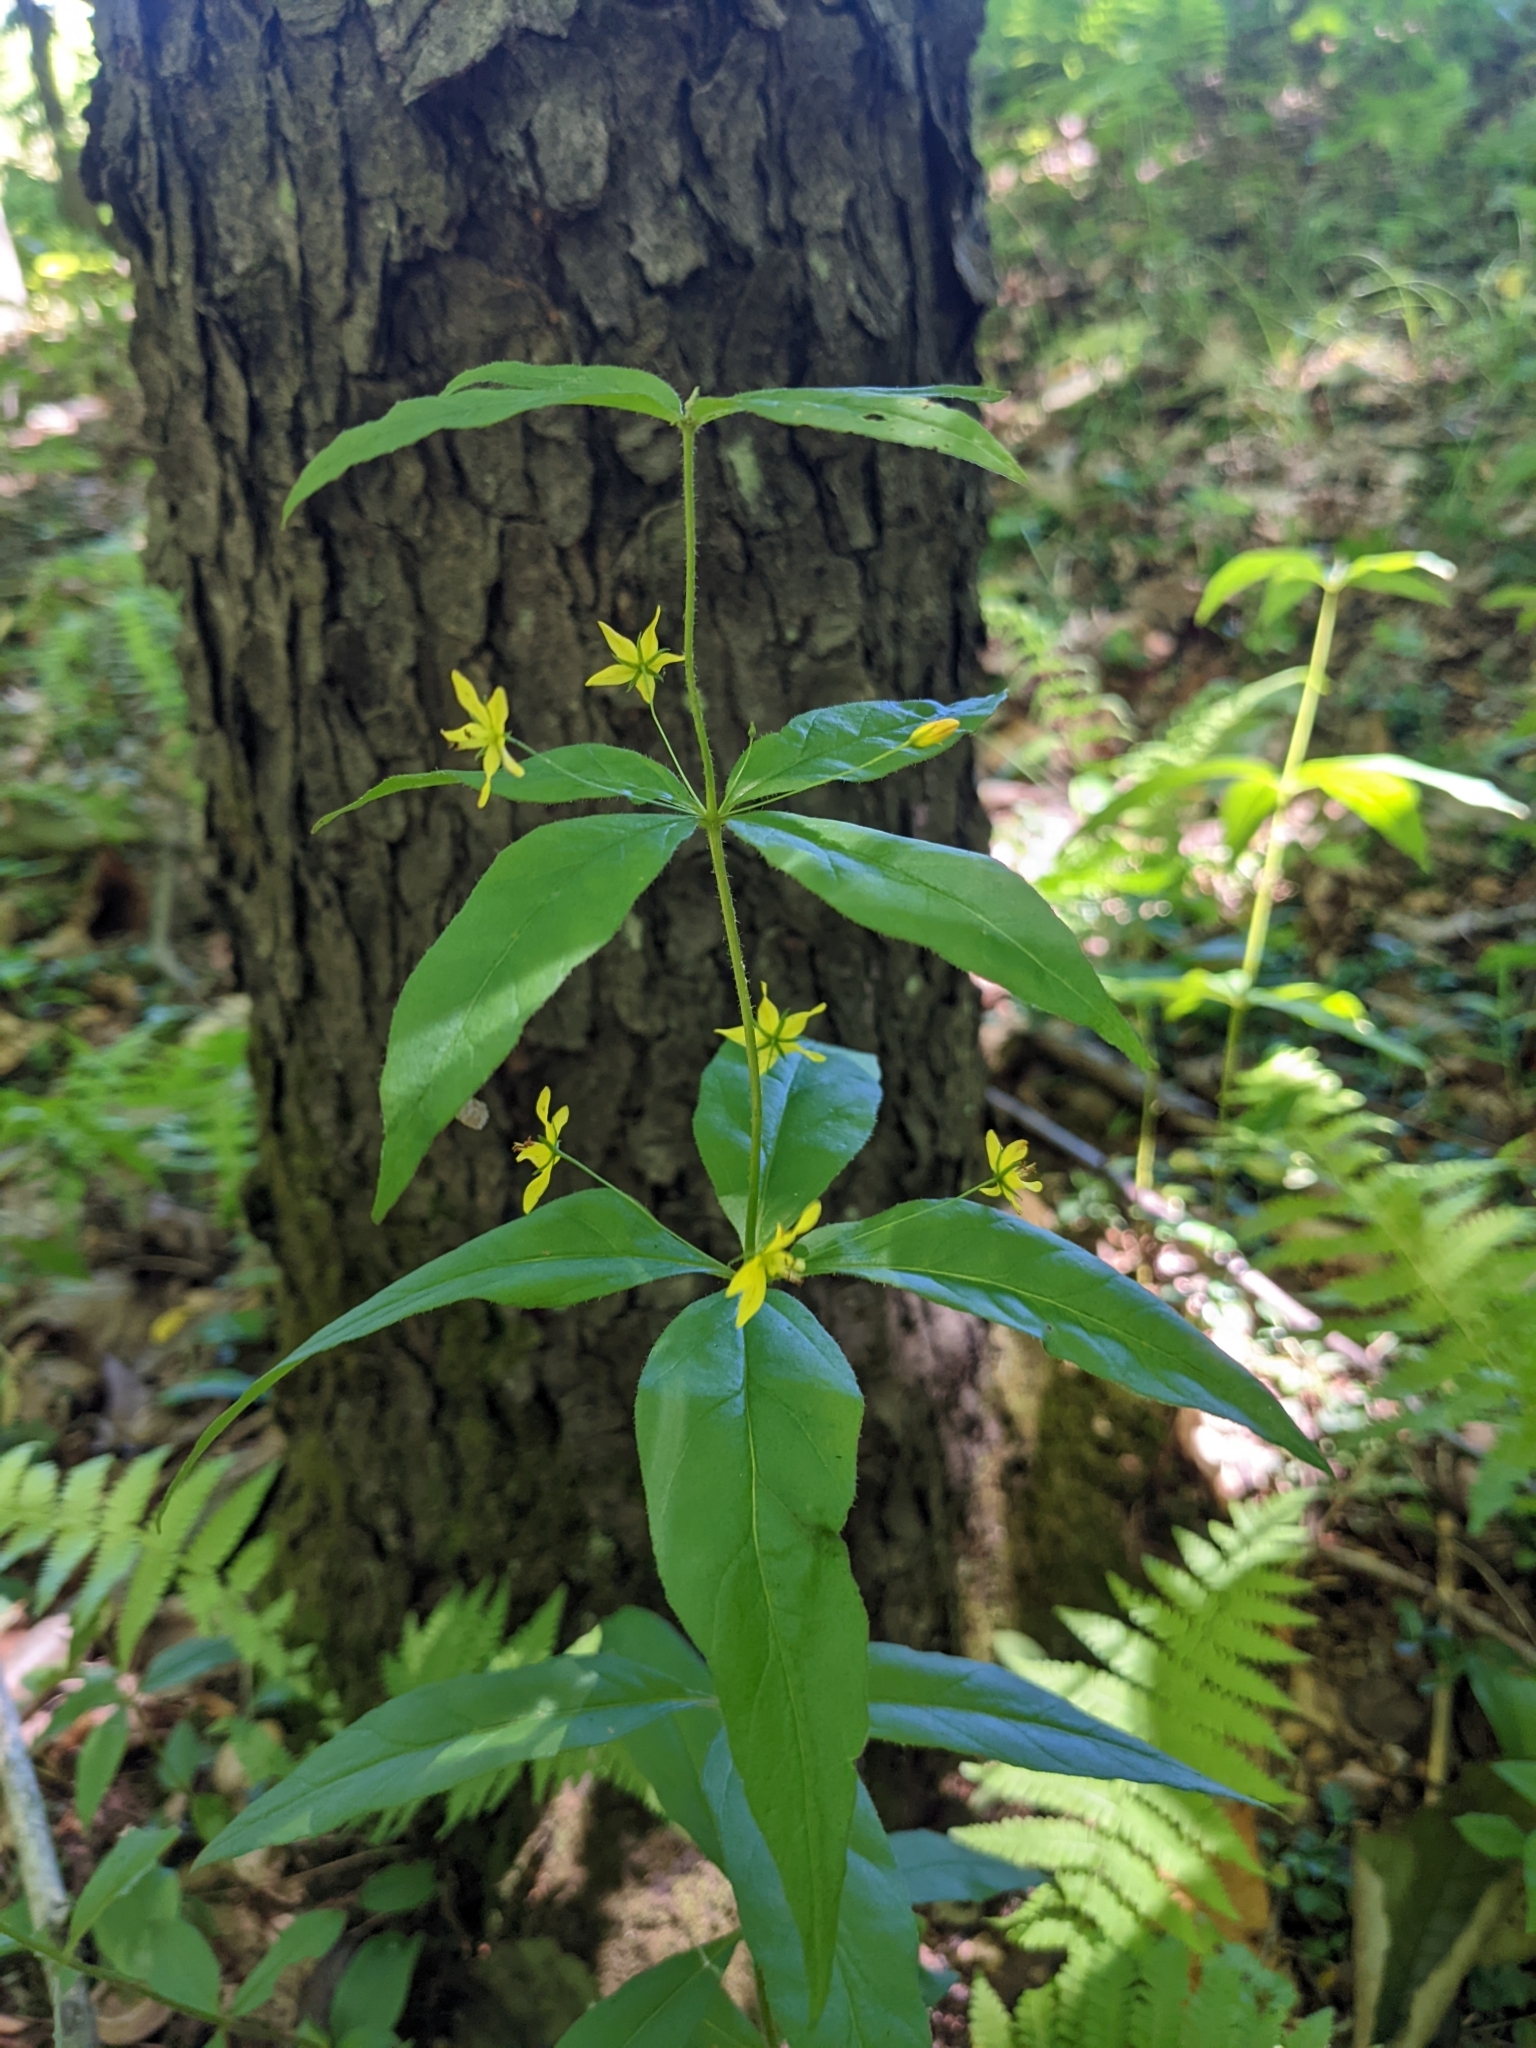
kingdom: Plantae
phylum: Tracheophyta
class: Magnoliopsida
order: Ericales
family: Primulaceae
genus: Lysimachia
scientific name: Lysimachia quadrifolia
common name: Whorled loosestrife
